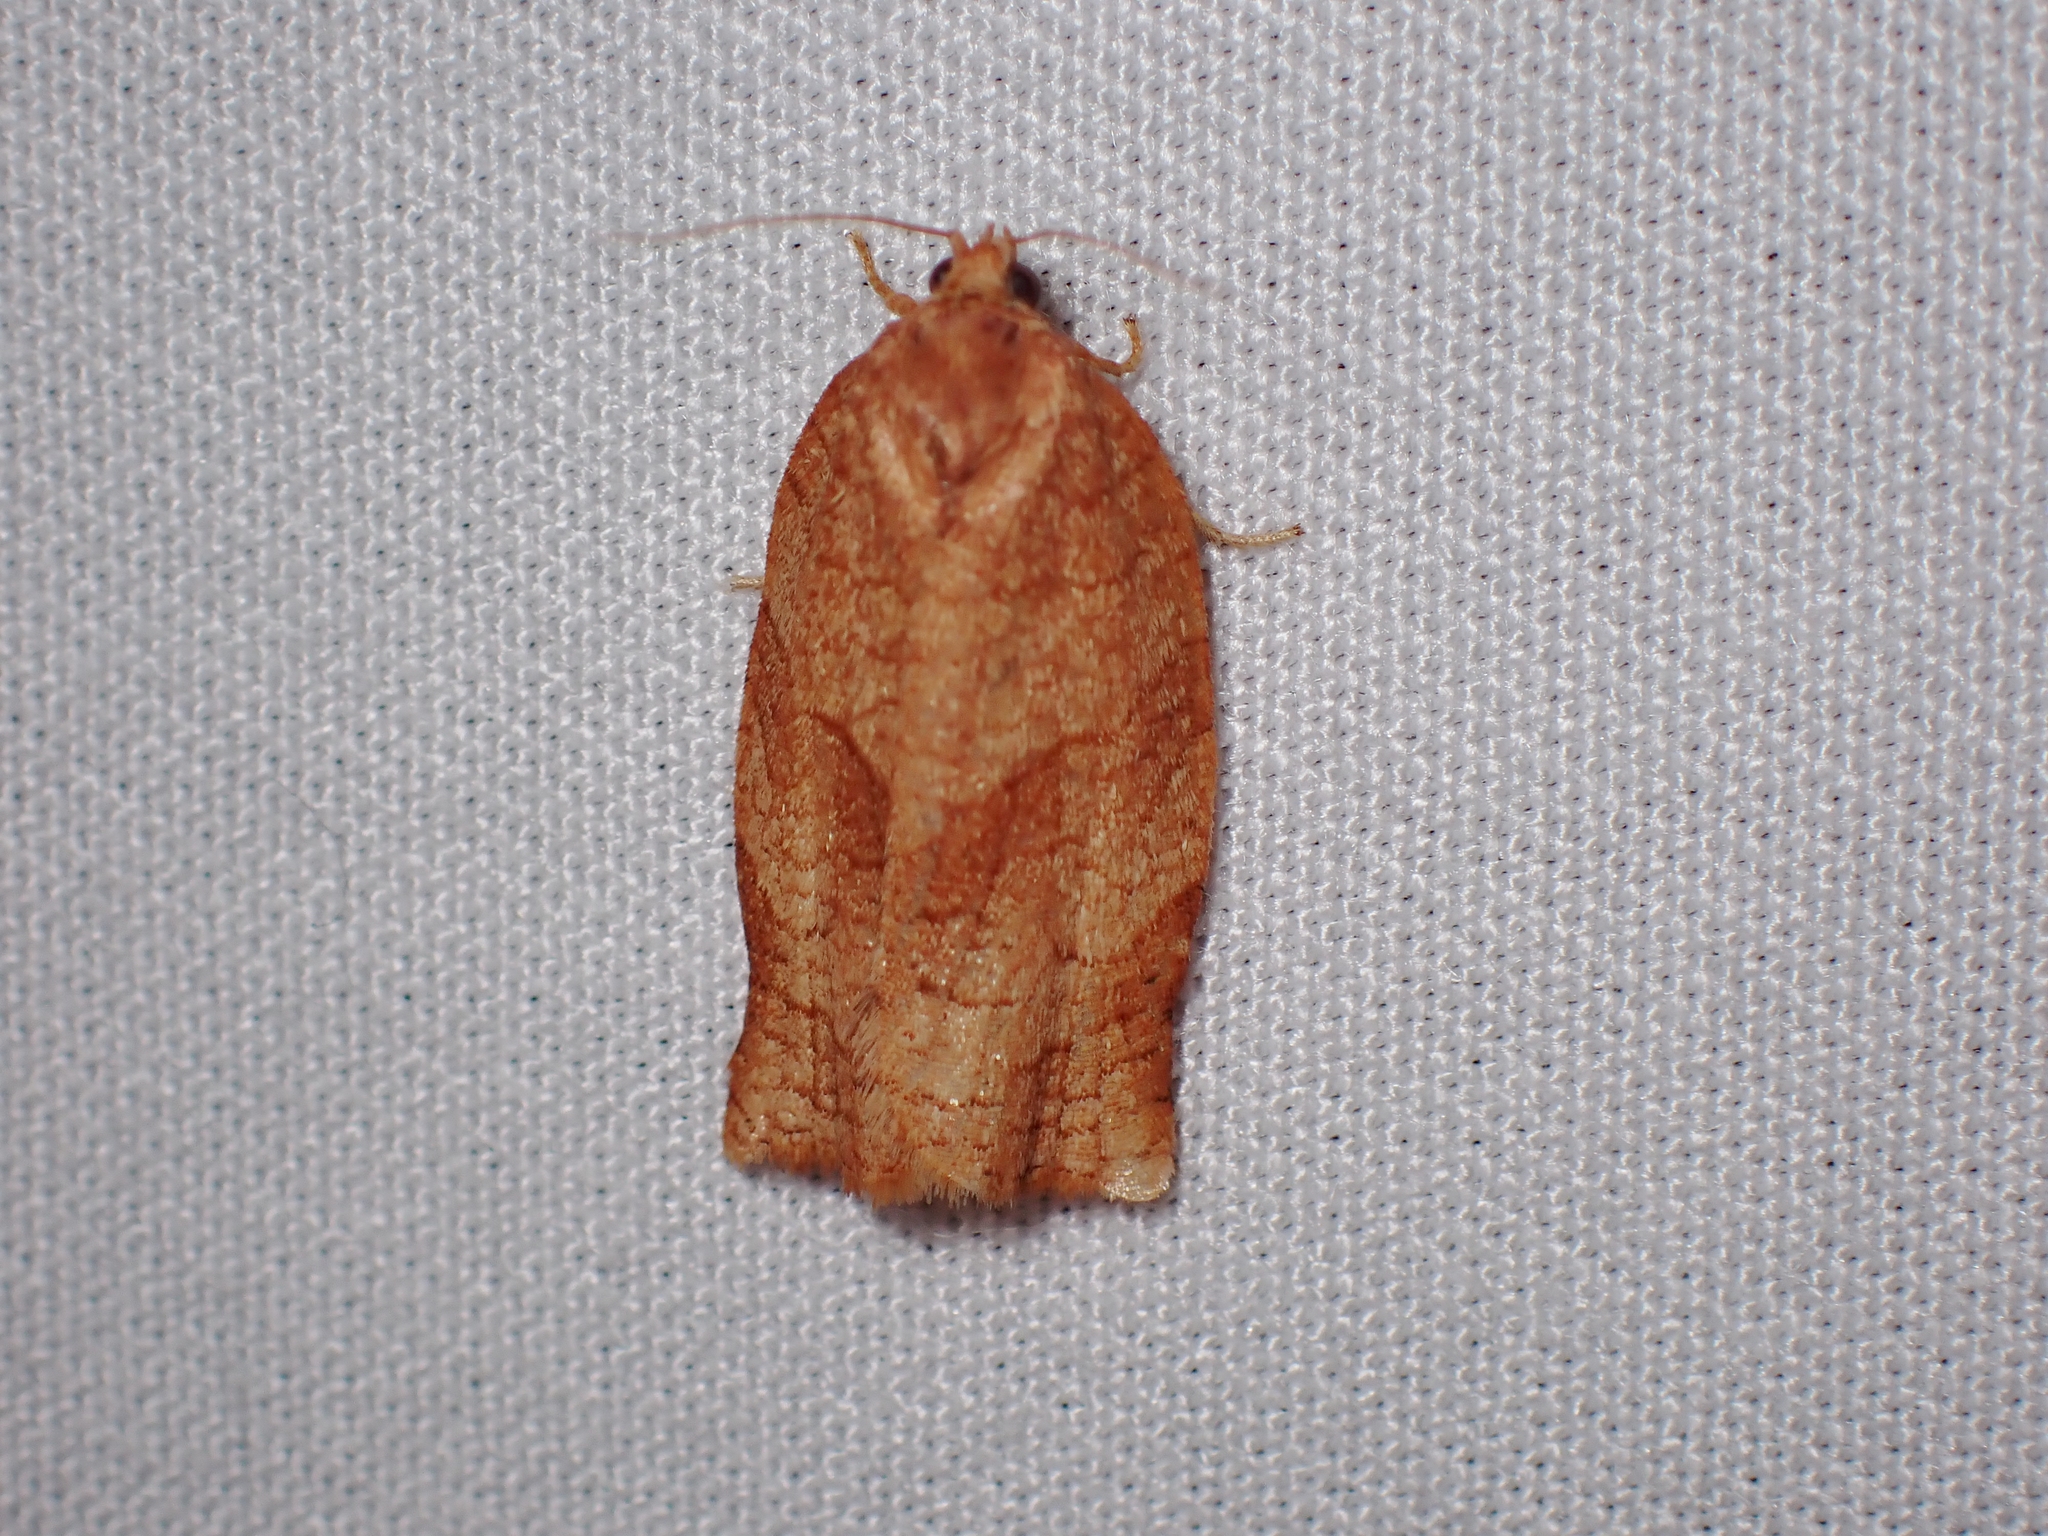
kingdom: Animalia
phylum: Arthropoda
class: Insecta
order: Lepidoptera
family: Tortricidae
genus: Choristoneura
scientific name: Choristoneura rosaceana
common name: Oblique-banded leafroller moth
